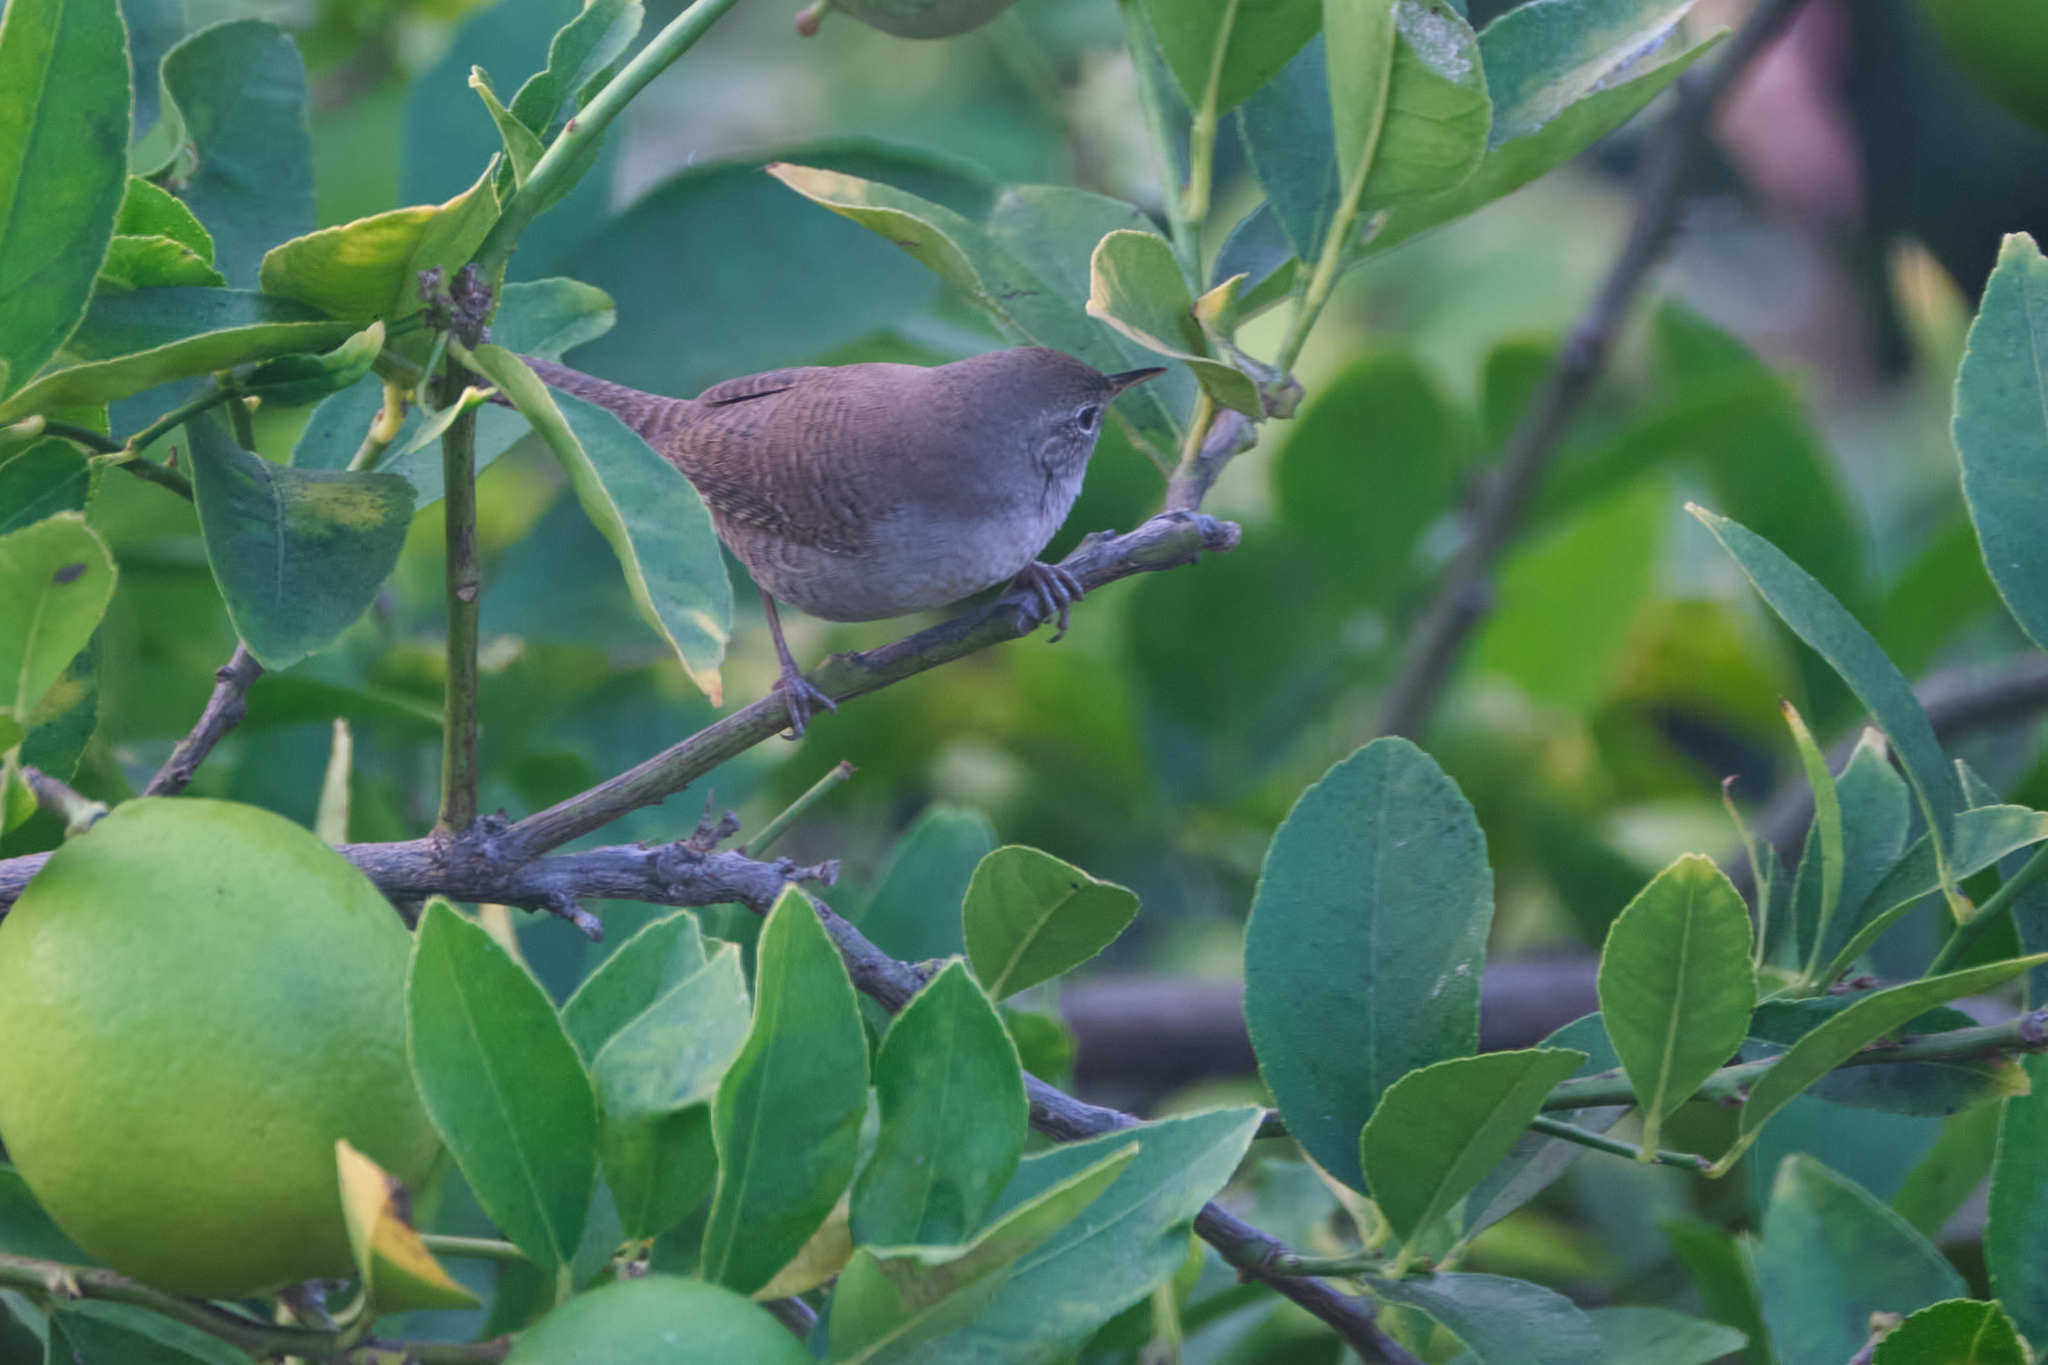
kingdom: Animalia
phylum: Chordata
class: Aves
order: Passeriformes
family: Troglodytidae
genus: Troglodytes
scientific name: Troglodytes aedon
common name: House wren
